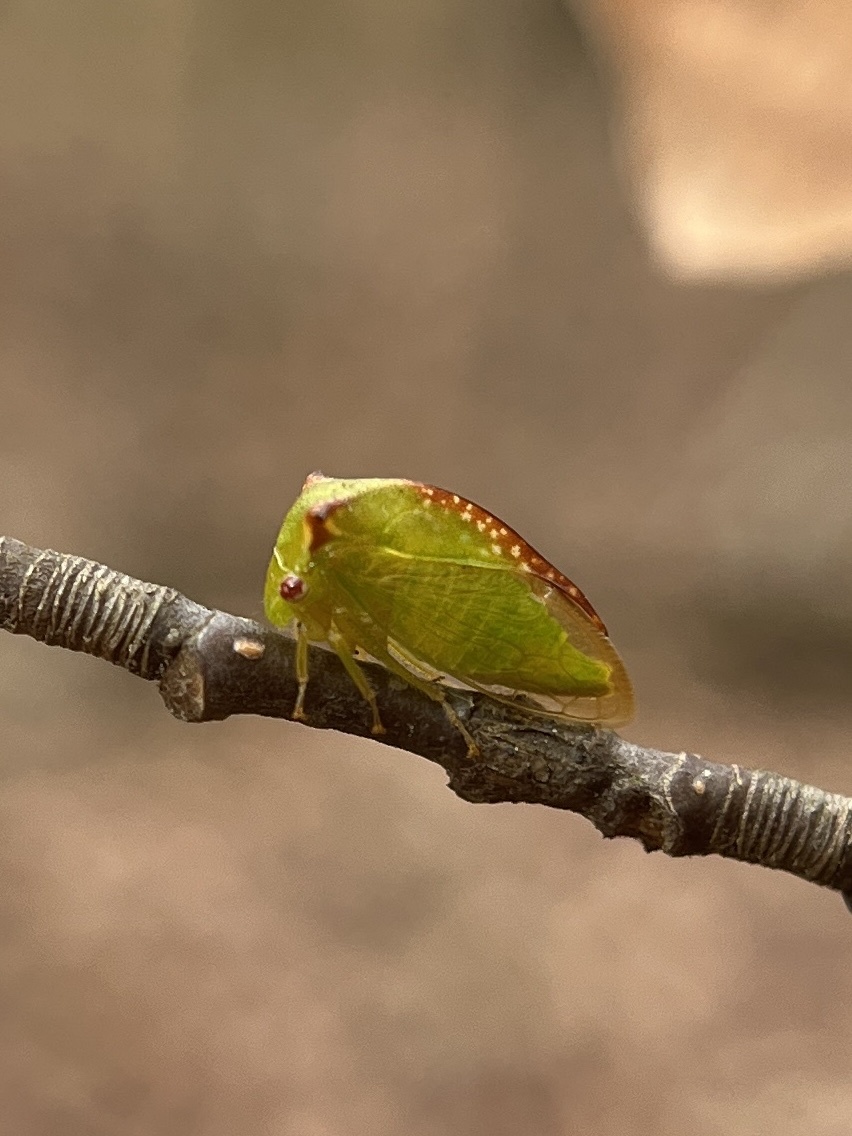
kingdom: Animalia
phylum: Arthropoda
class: Insecta
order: Hemiptera
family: Membracidae
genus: Stictocephala
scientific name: Stictocephala militaris
